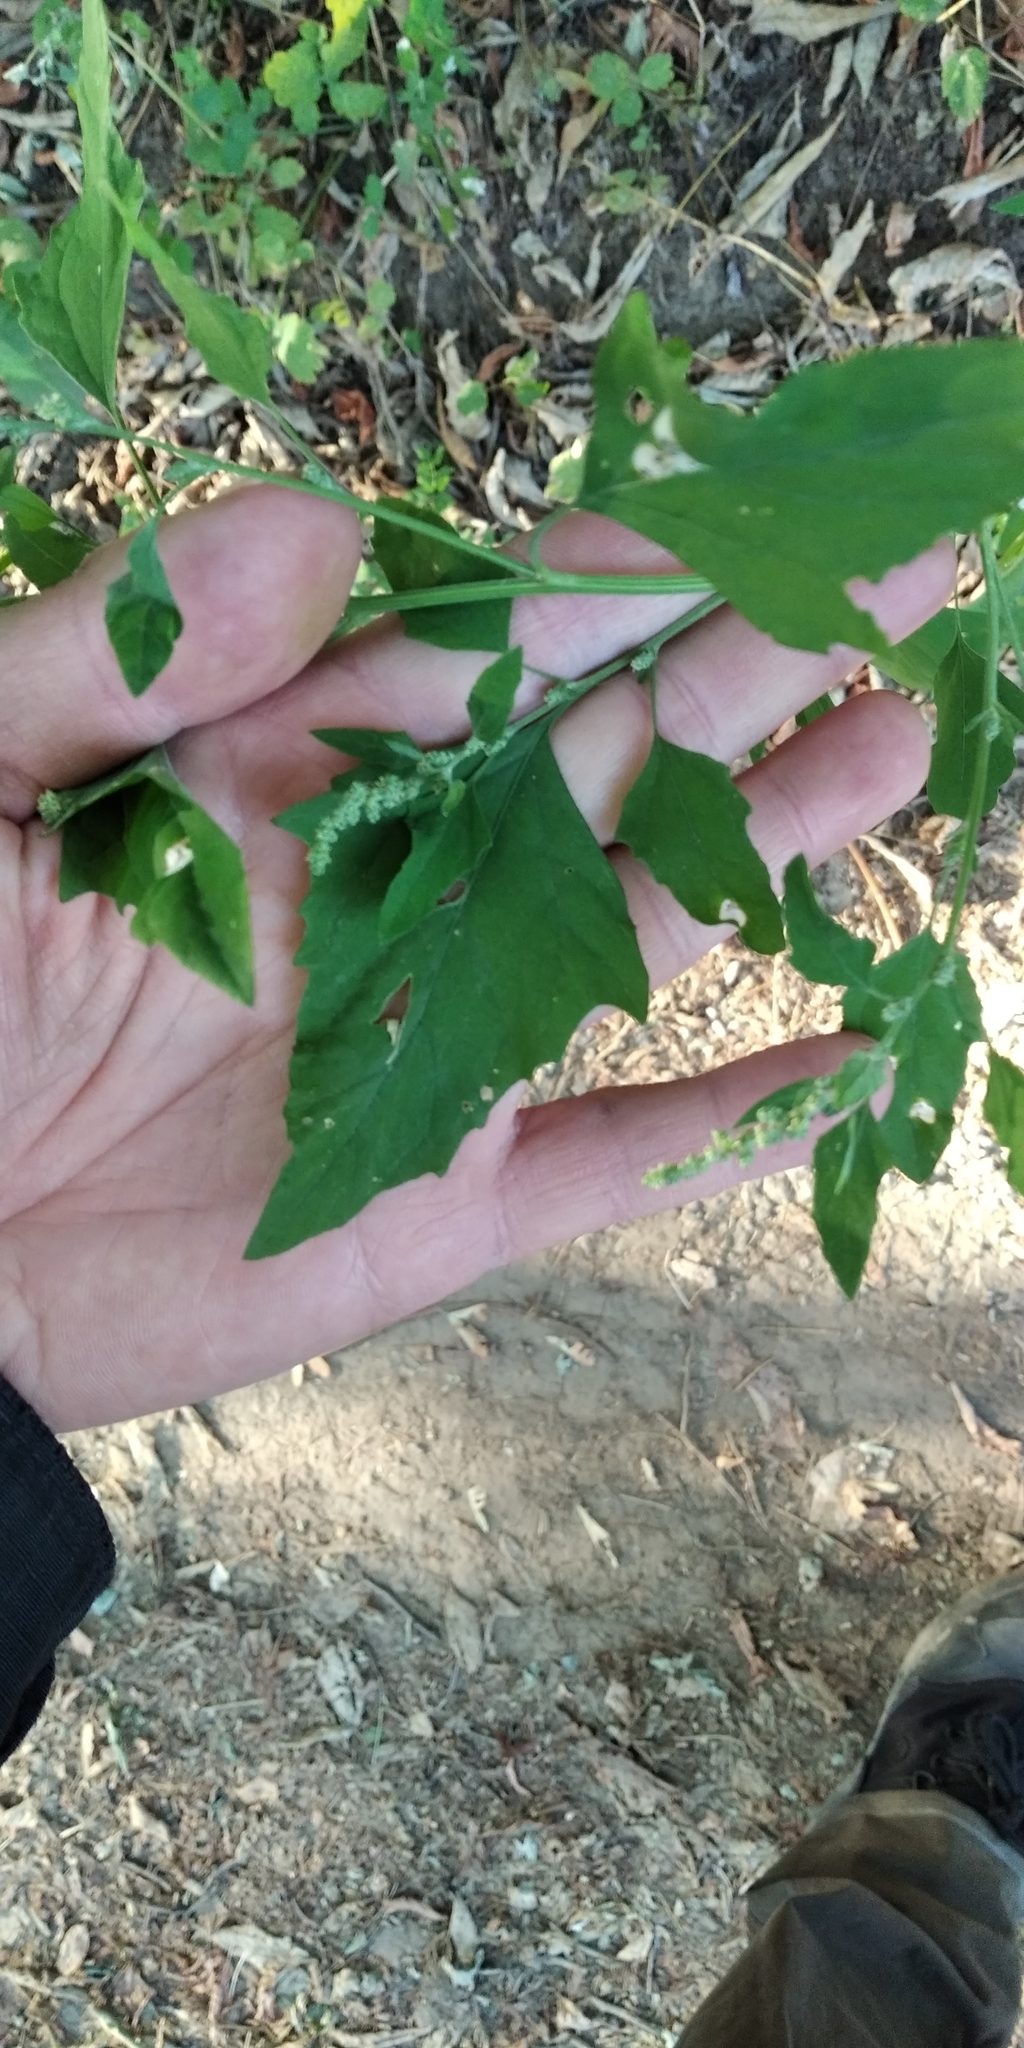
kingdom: Plantae
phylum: Tracheophyta
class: Magnoliopsida
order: Caryophyllales
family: Amaranthaceae
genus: Chenopodium
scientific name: Chenopodium album
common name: Fat-hen
